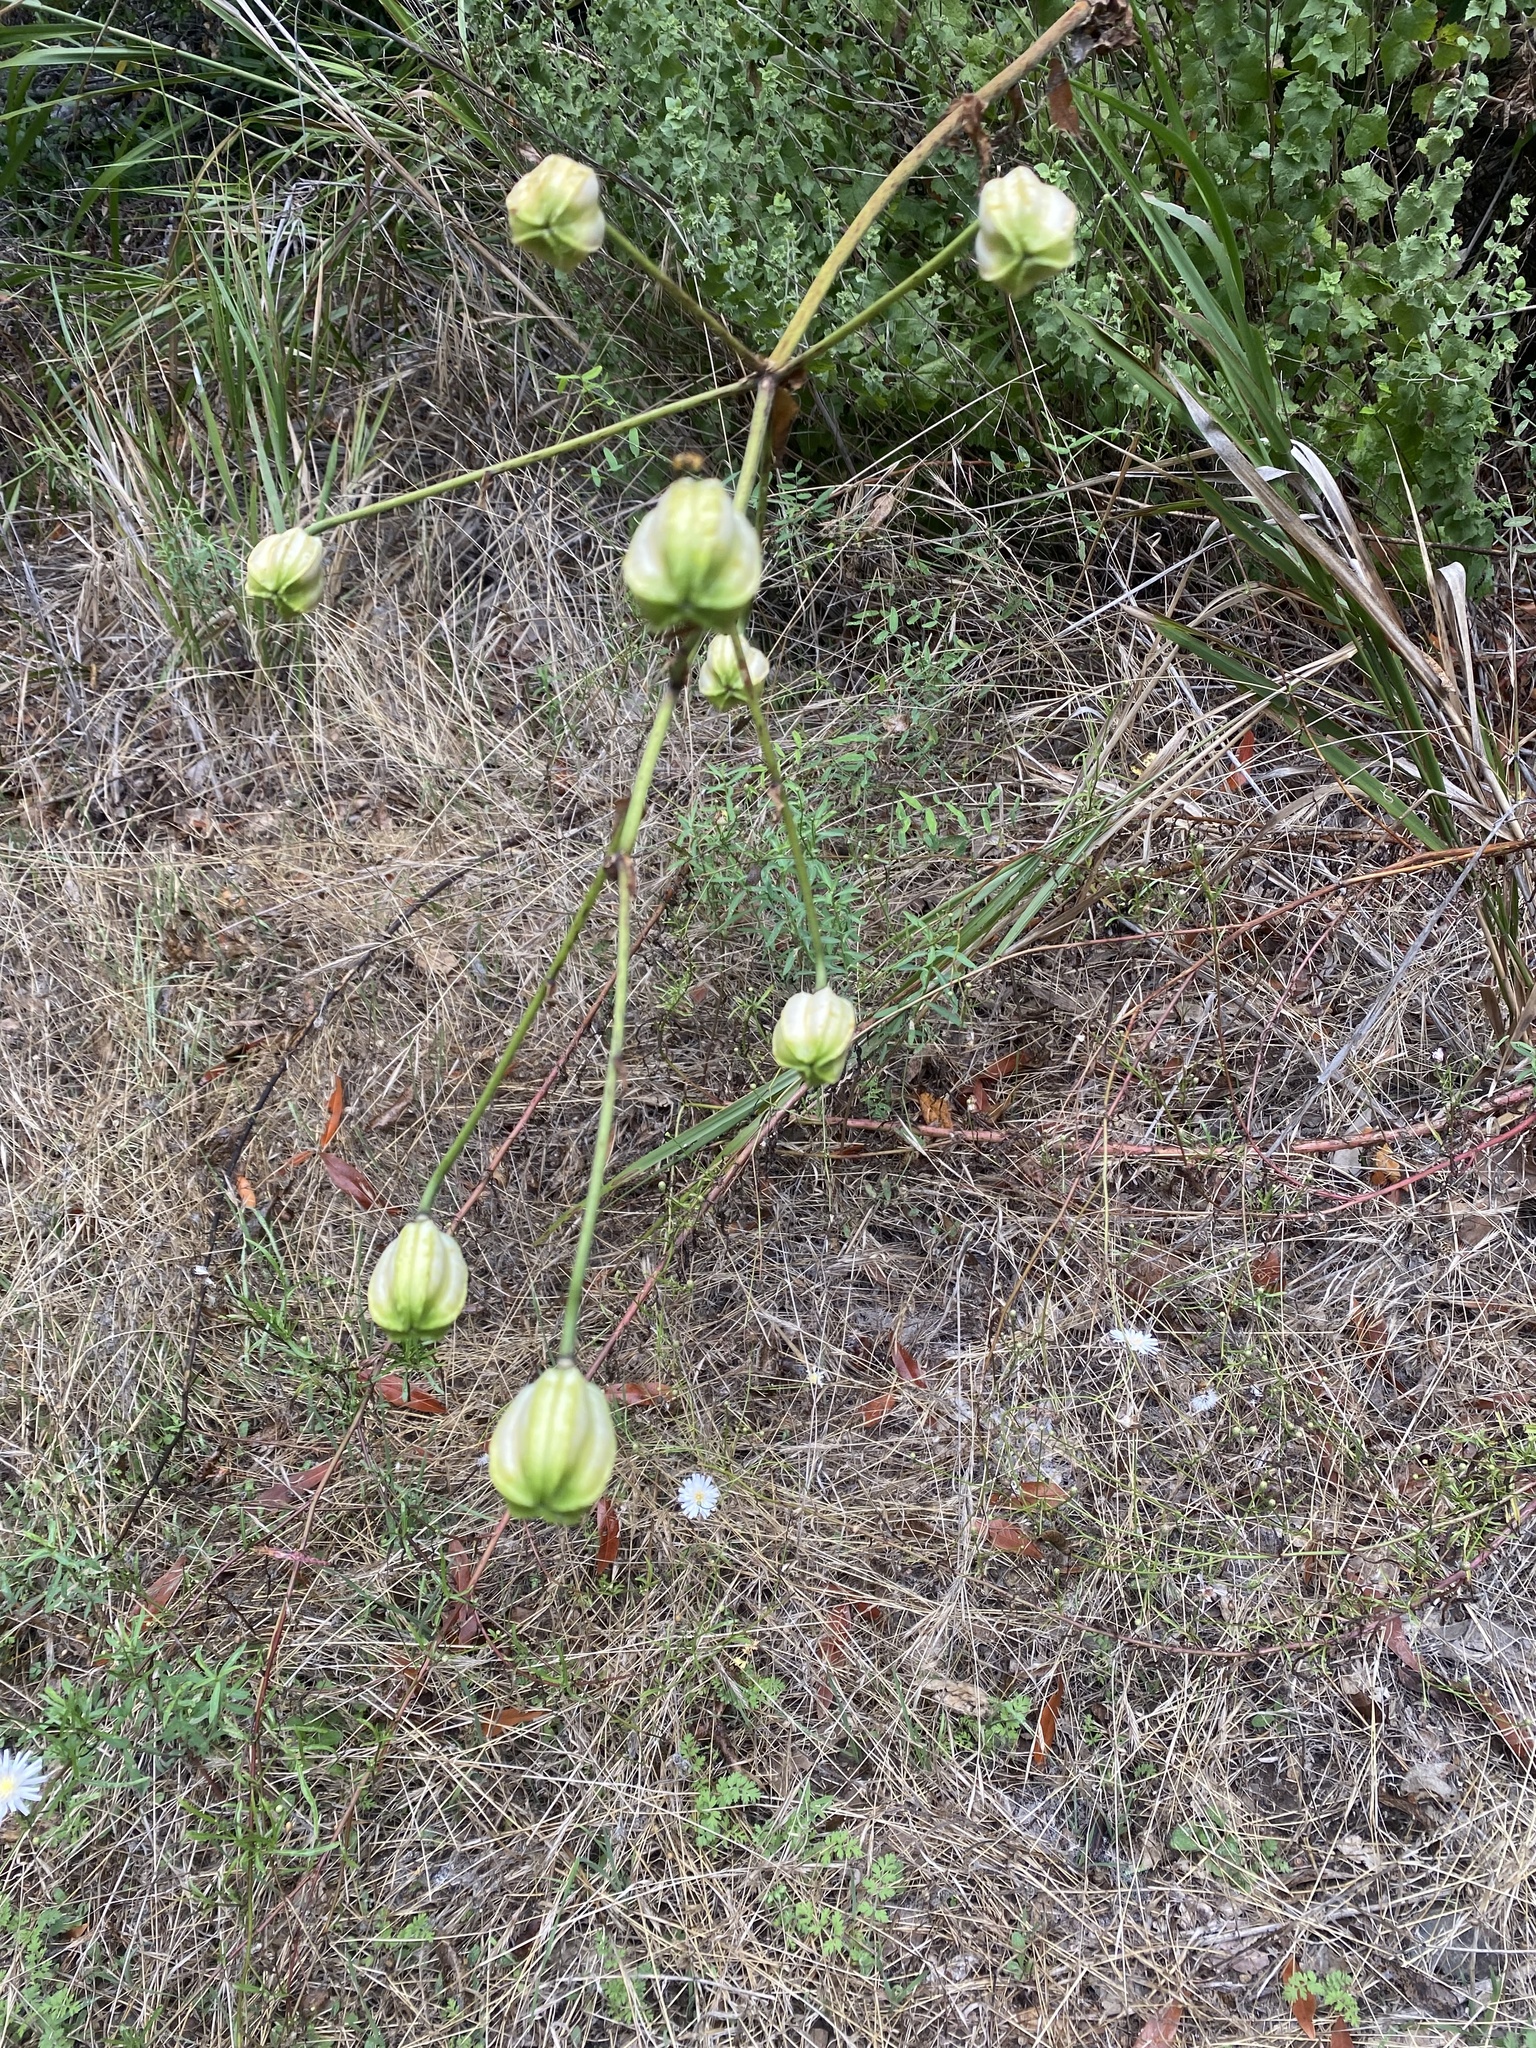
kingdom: Plantae
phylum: Tracheophyta
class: Liliopsida
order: Liliales
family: Liliaceae
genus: Lilium
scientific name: Lilium humboldtii
